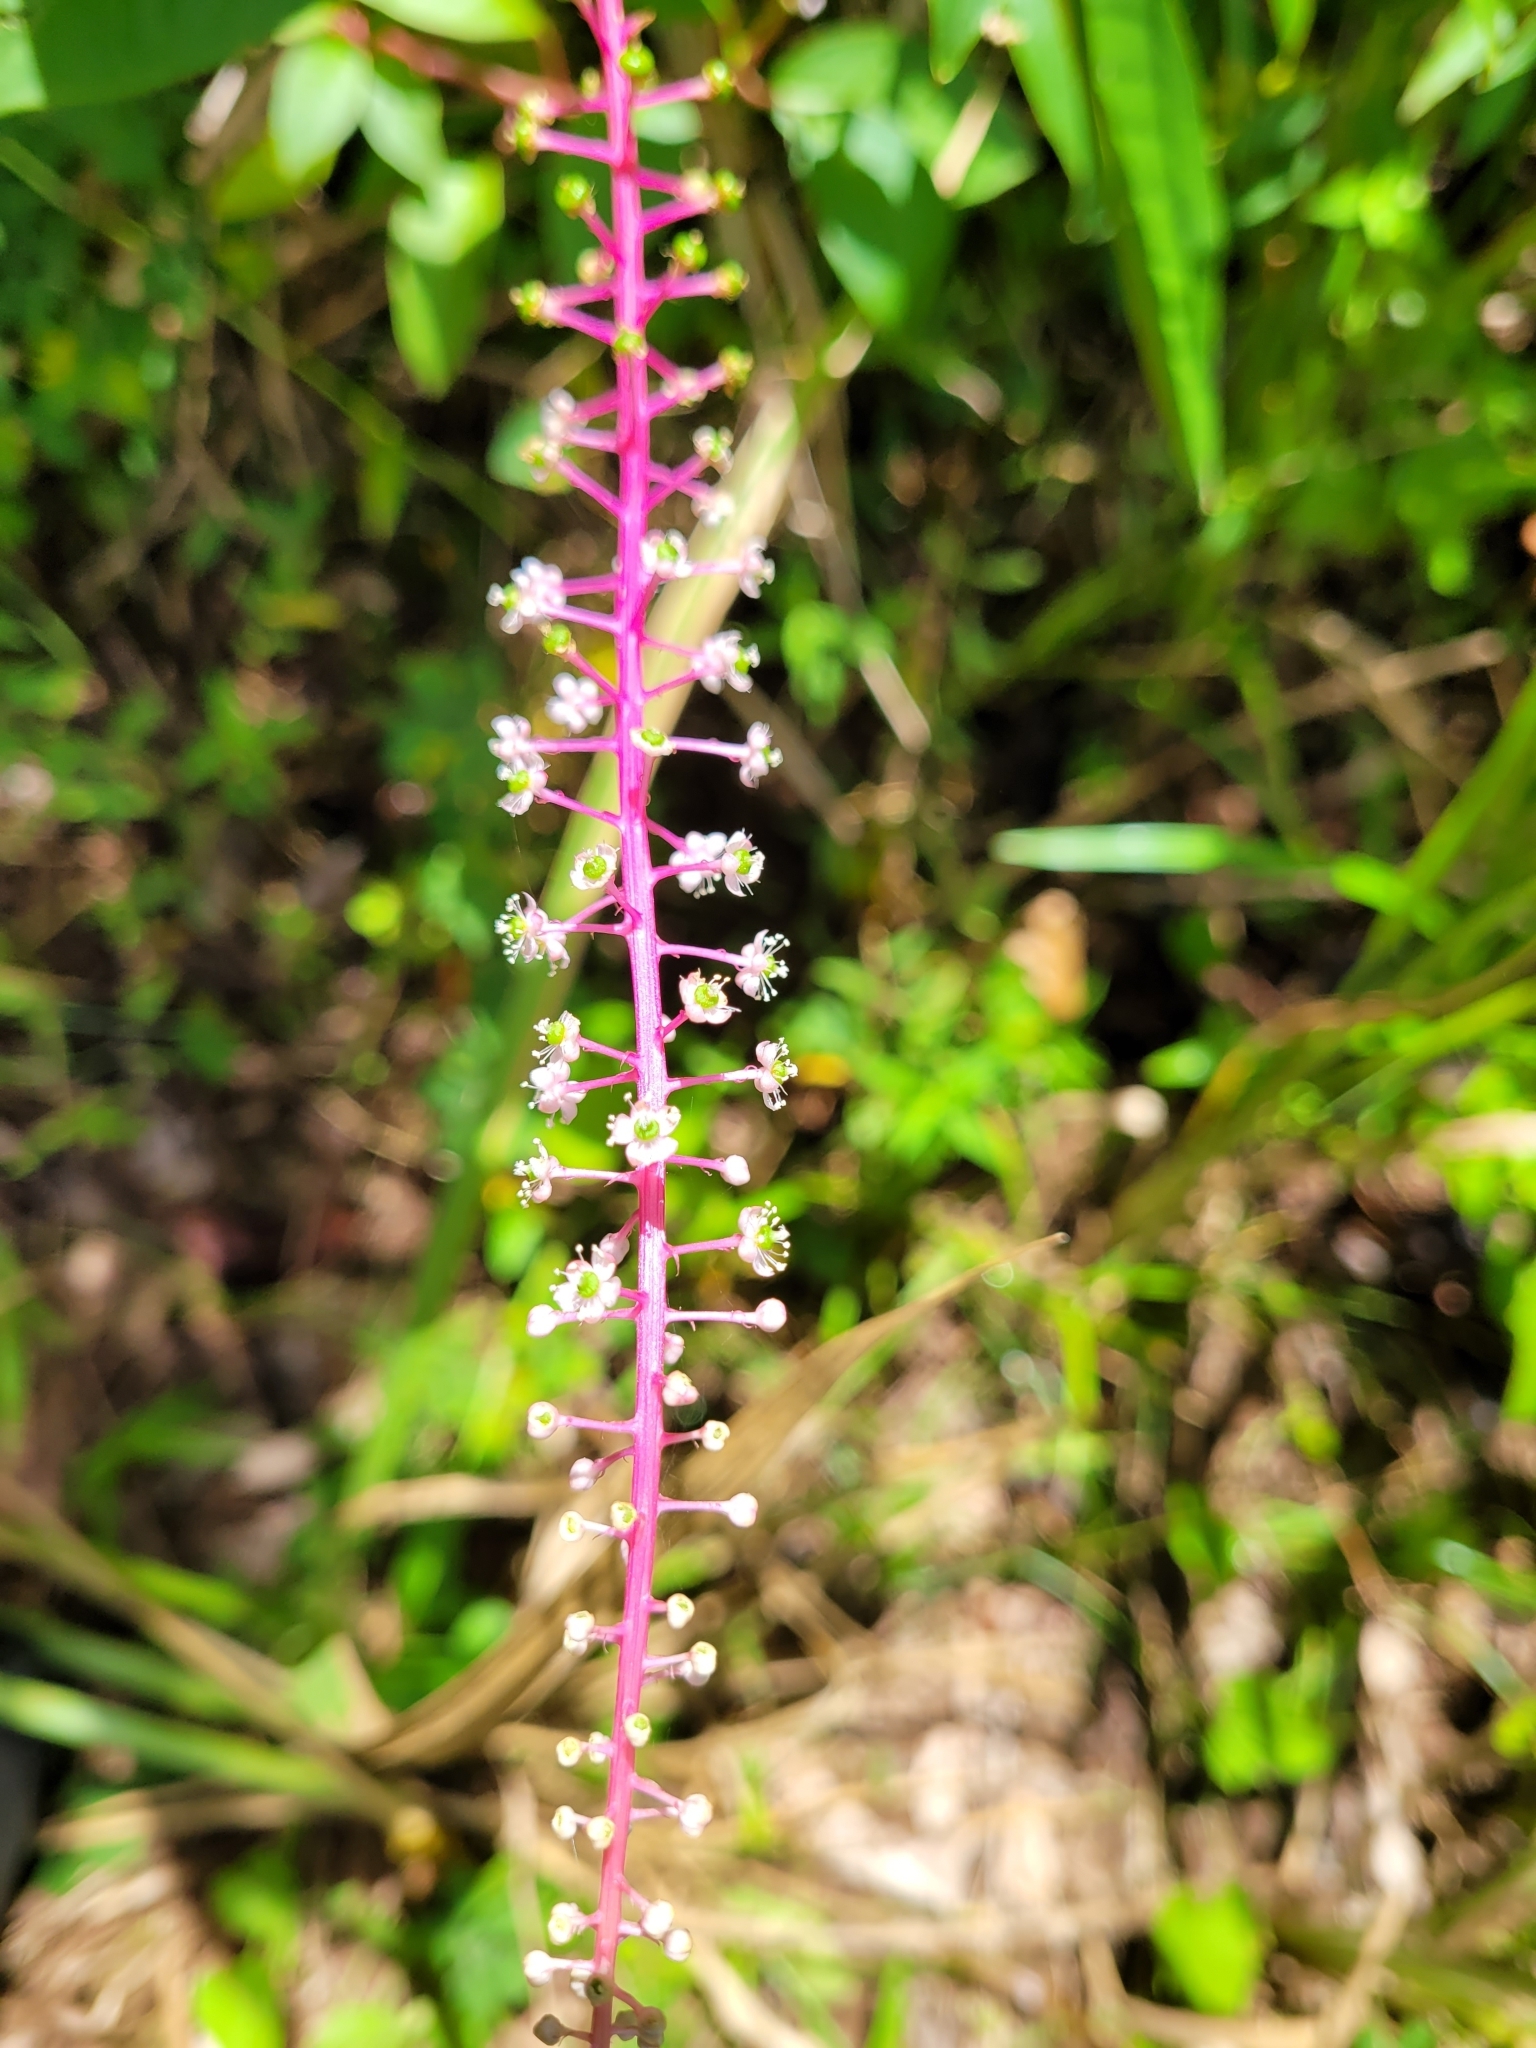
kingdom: Plantae
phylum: Tracheophyta
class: Magnoliopsida
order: Caryophyllales
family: Phytolaccaceae
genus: Phytolacca
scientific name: Phytolacca rivinoides
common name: Venezuelan pokeweed
